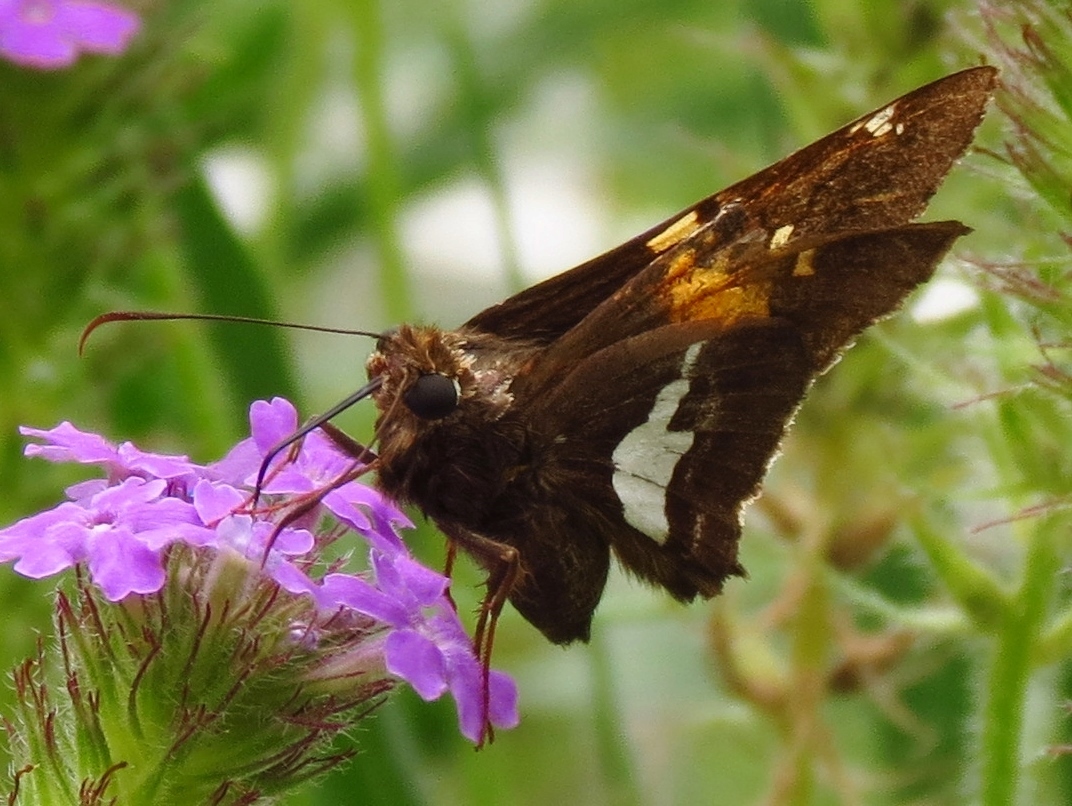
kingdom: Animalia
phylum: Arthropoda
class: Insecta
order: Lepidoptera
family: Hesperiidae
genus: Epargyreus
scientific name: Epargyreus clarus
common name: Silver-spotted skipper
